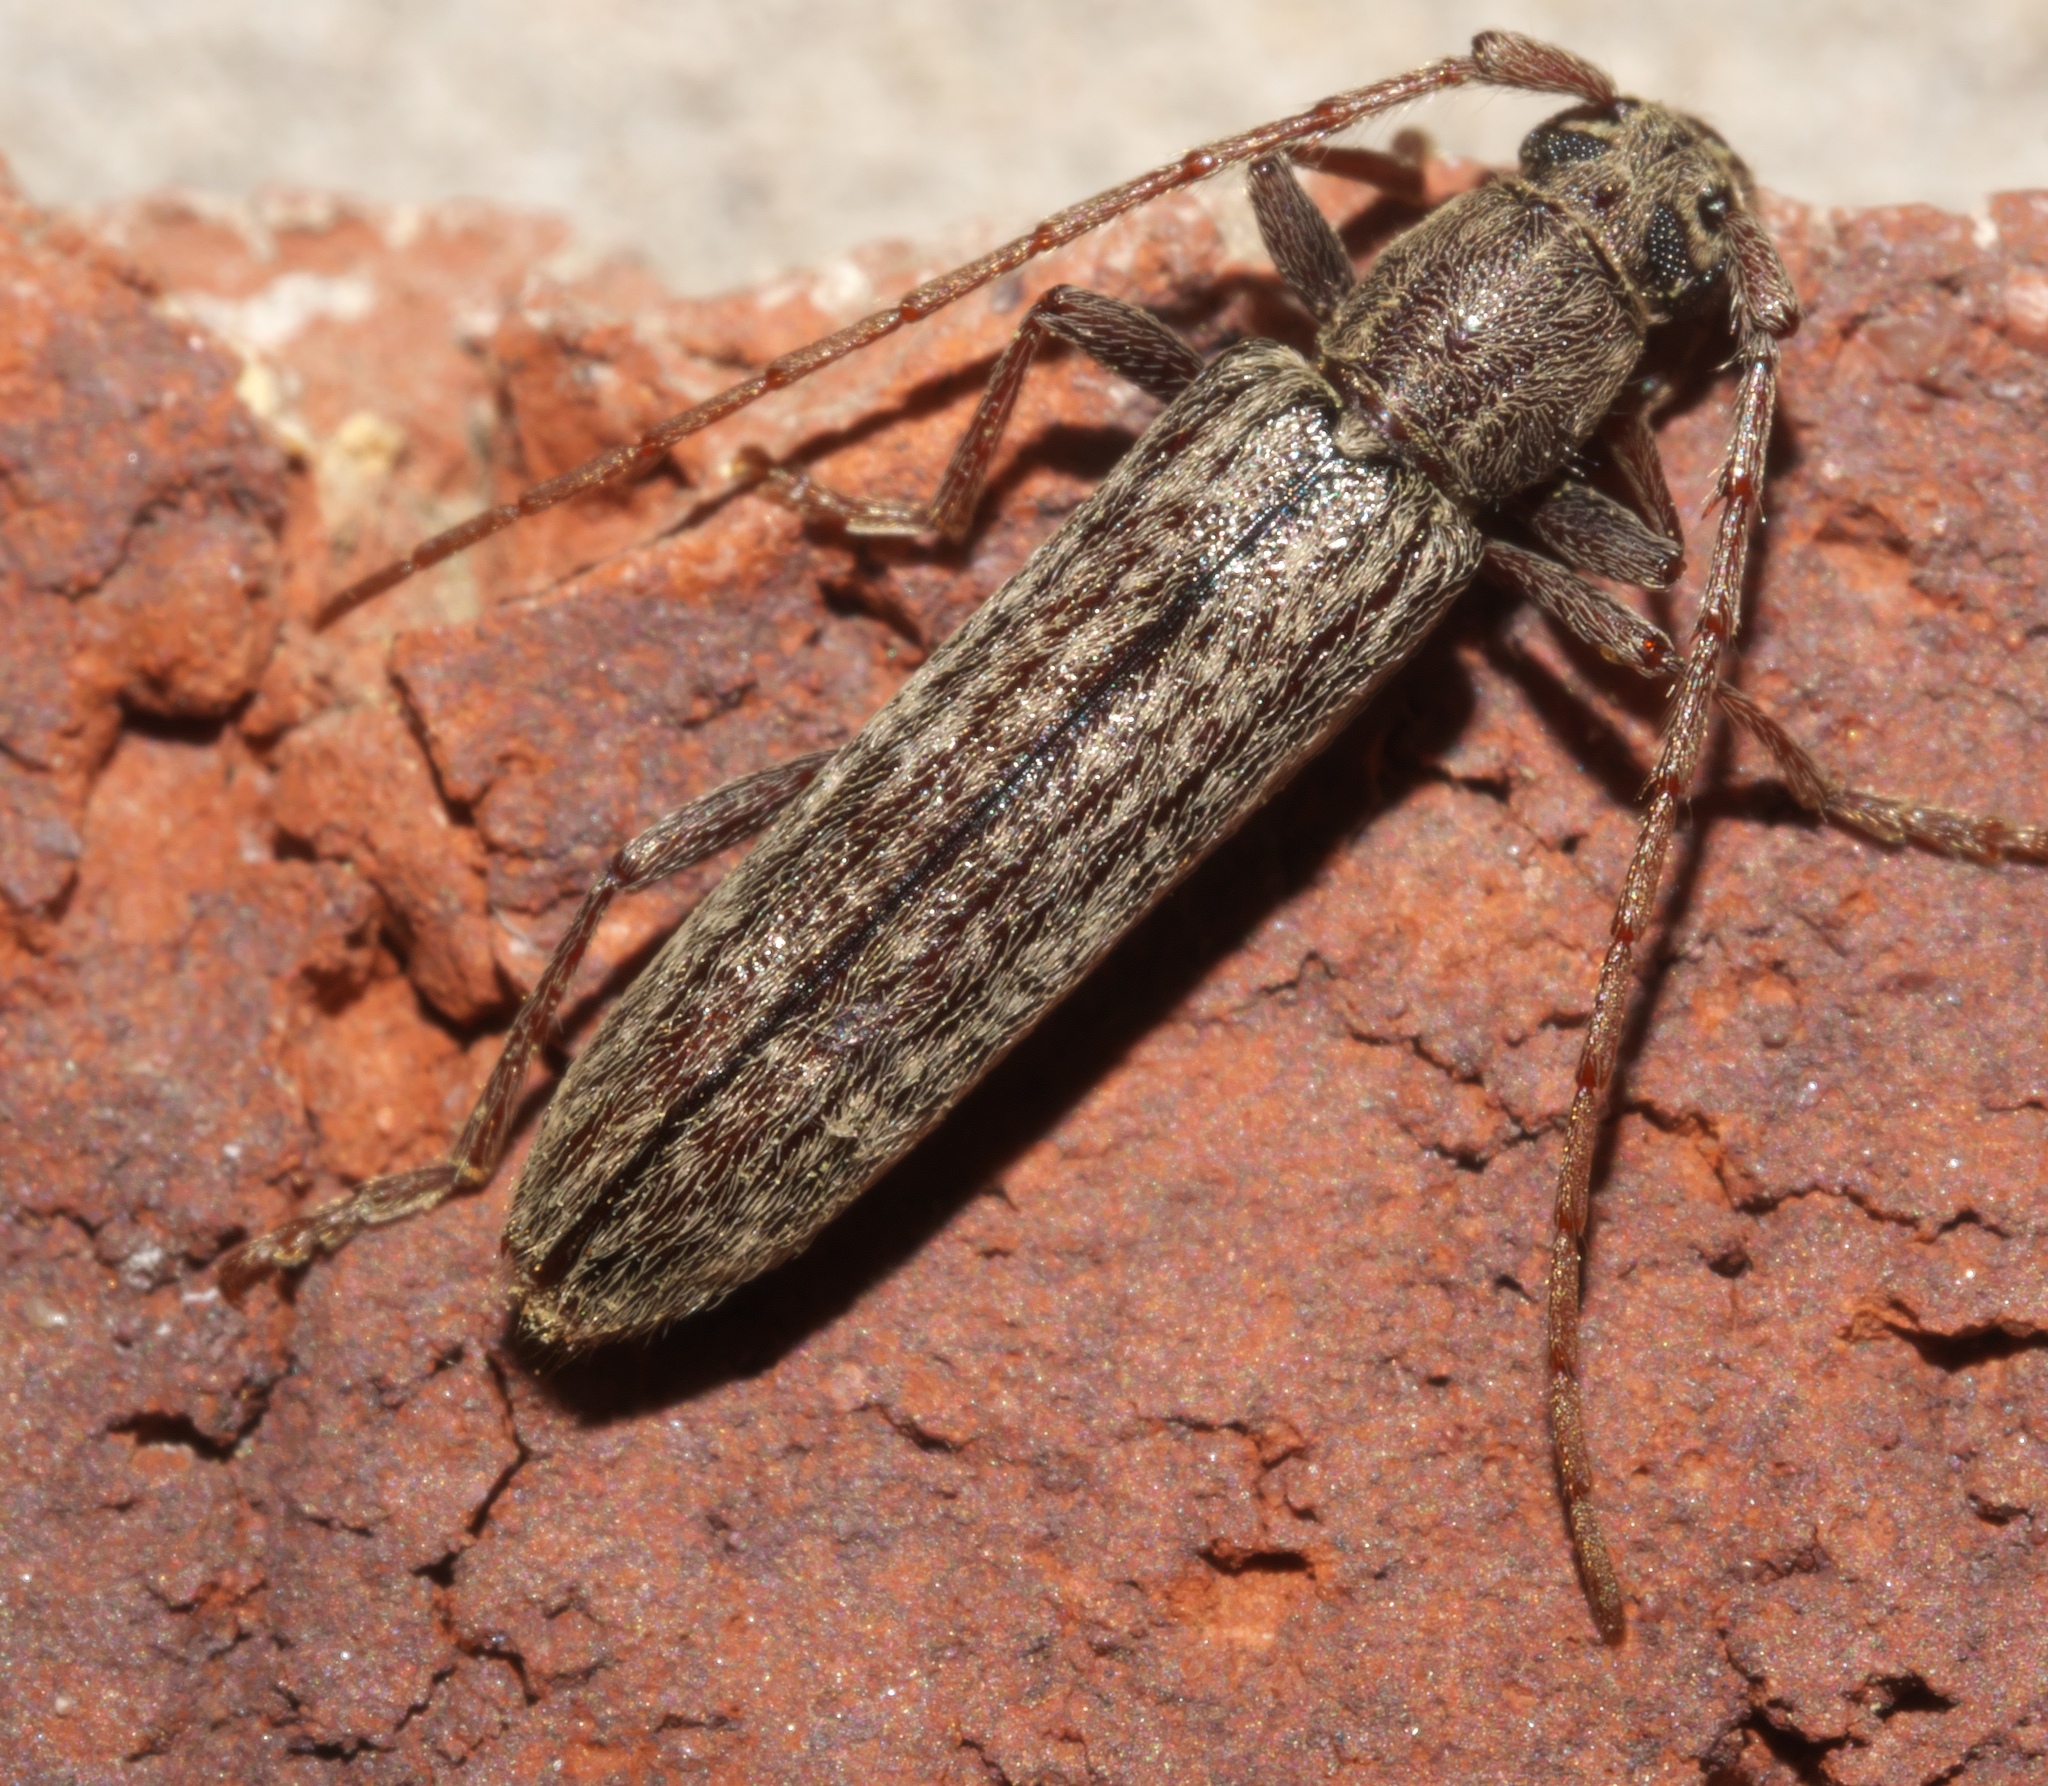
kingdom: Animalia
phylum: Arthropoda
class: Insecta
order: Coleoptera
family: Cerambycidae
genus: Anelaphus
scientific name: Anelaphus villosus
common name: Twig pruner
